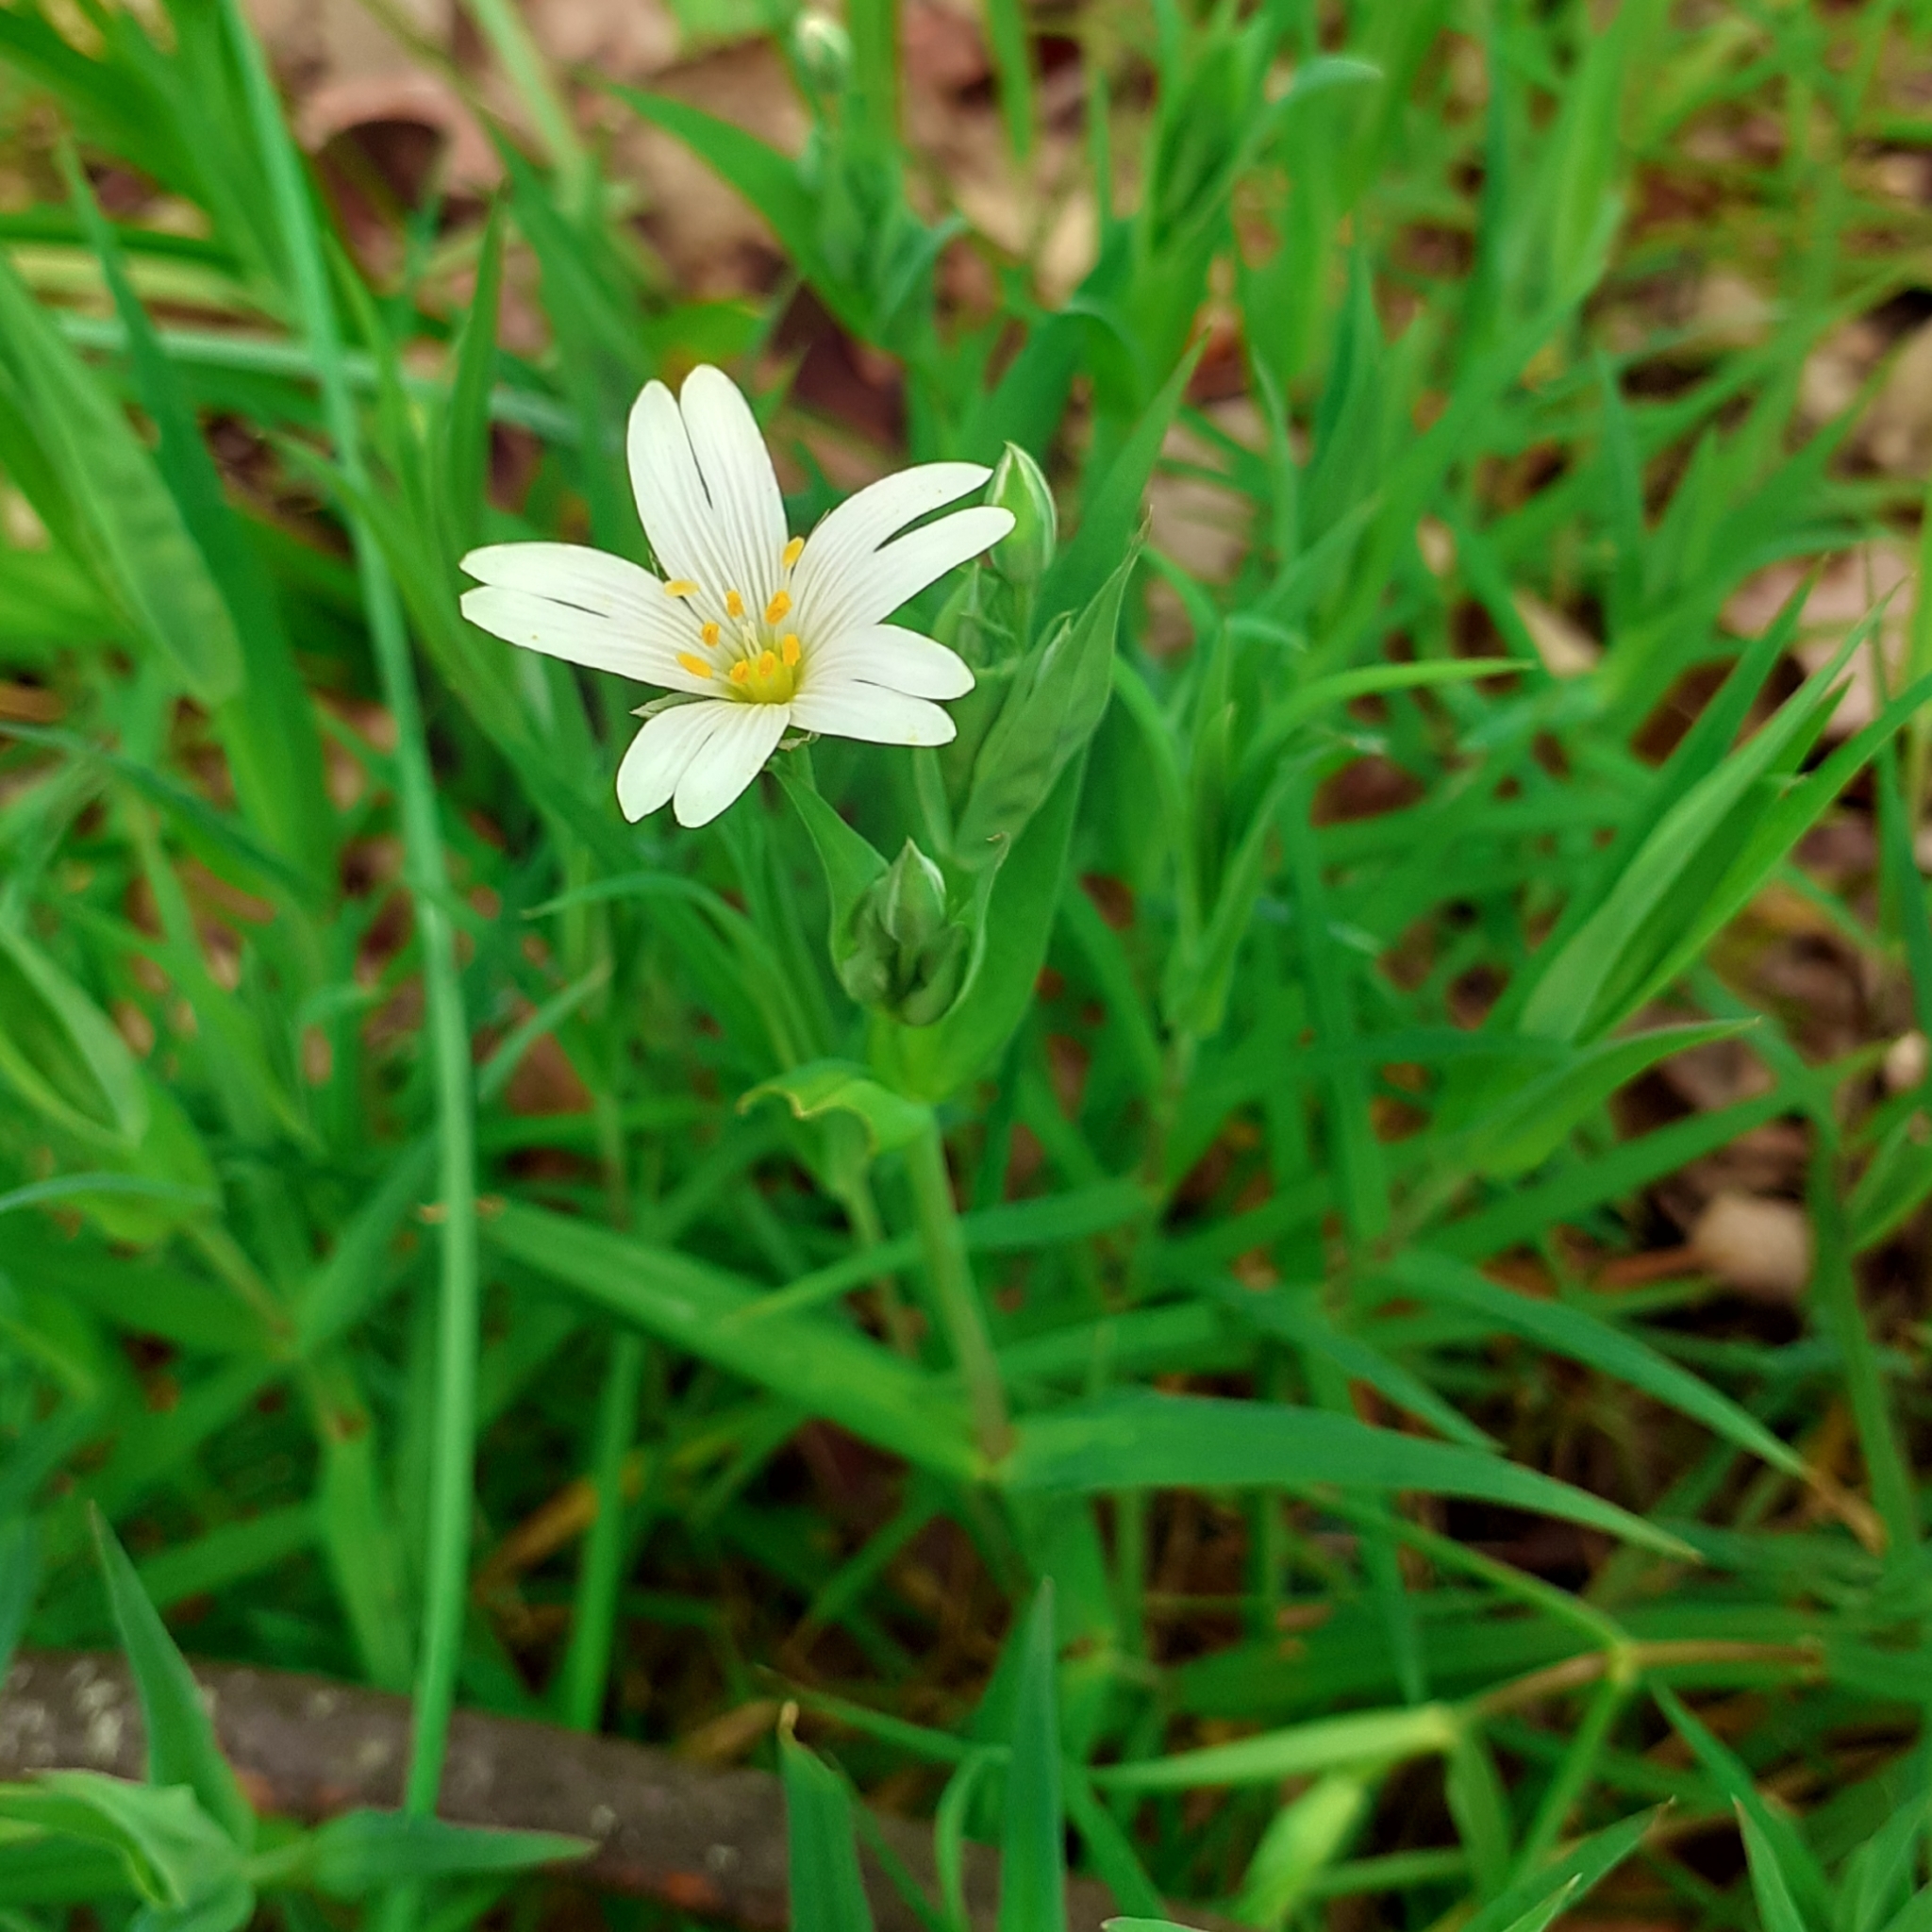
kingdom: Plantae
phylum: Tracheophyta
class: Magnoliopsida
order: Caryophyllales
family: Caryophyllaceae
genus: Rabelera
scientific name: Rabelera holostea
